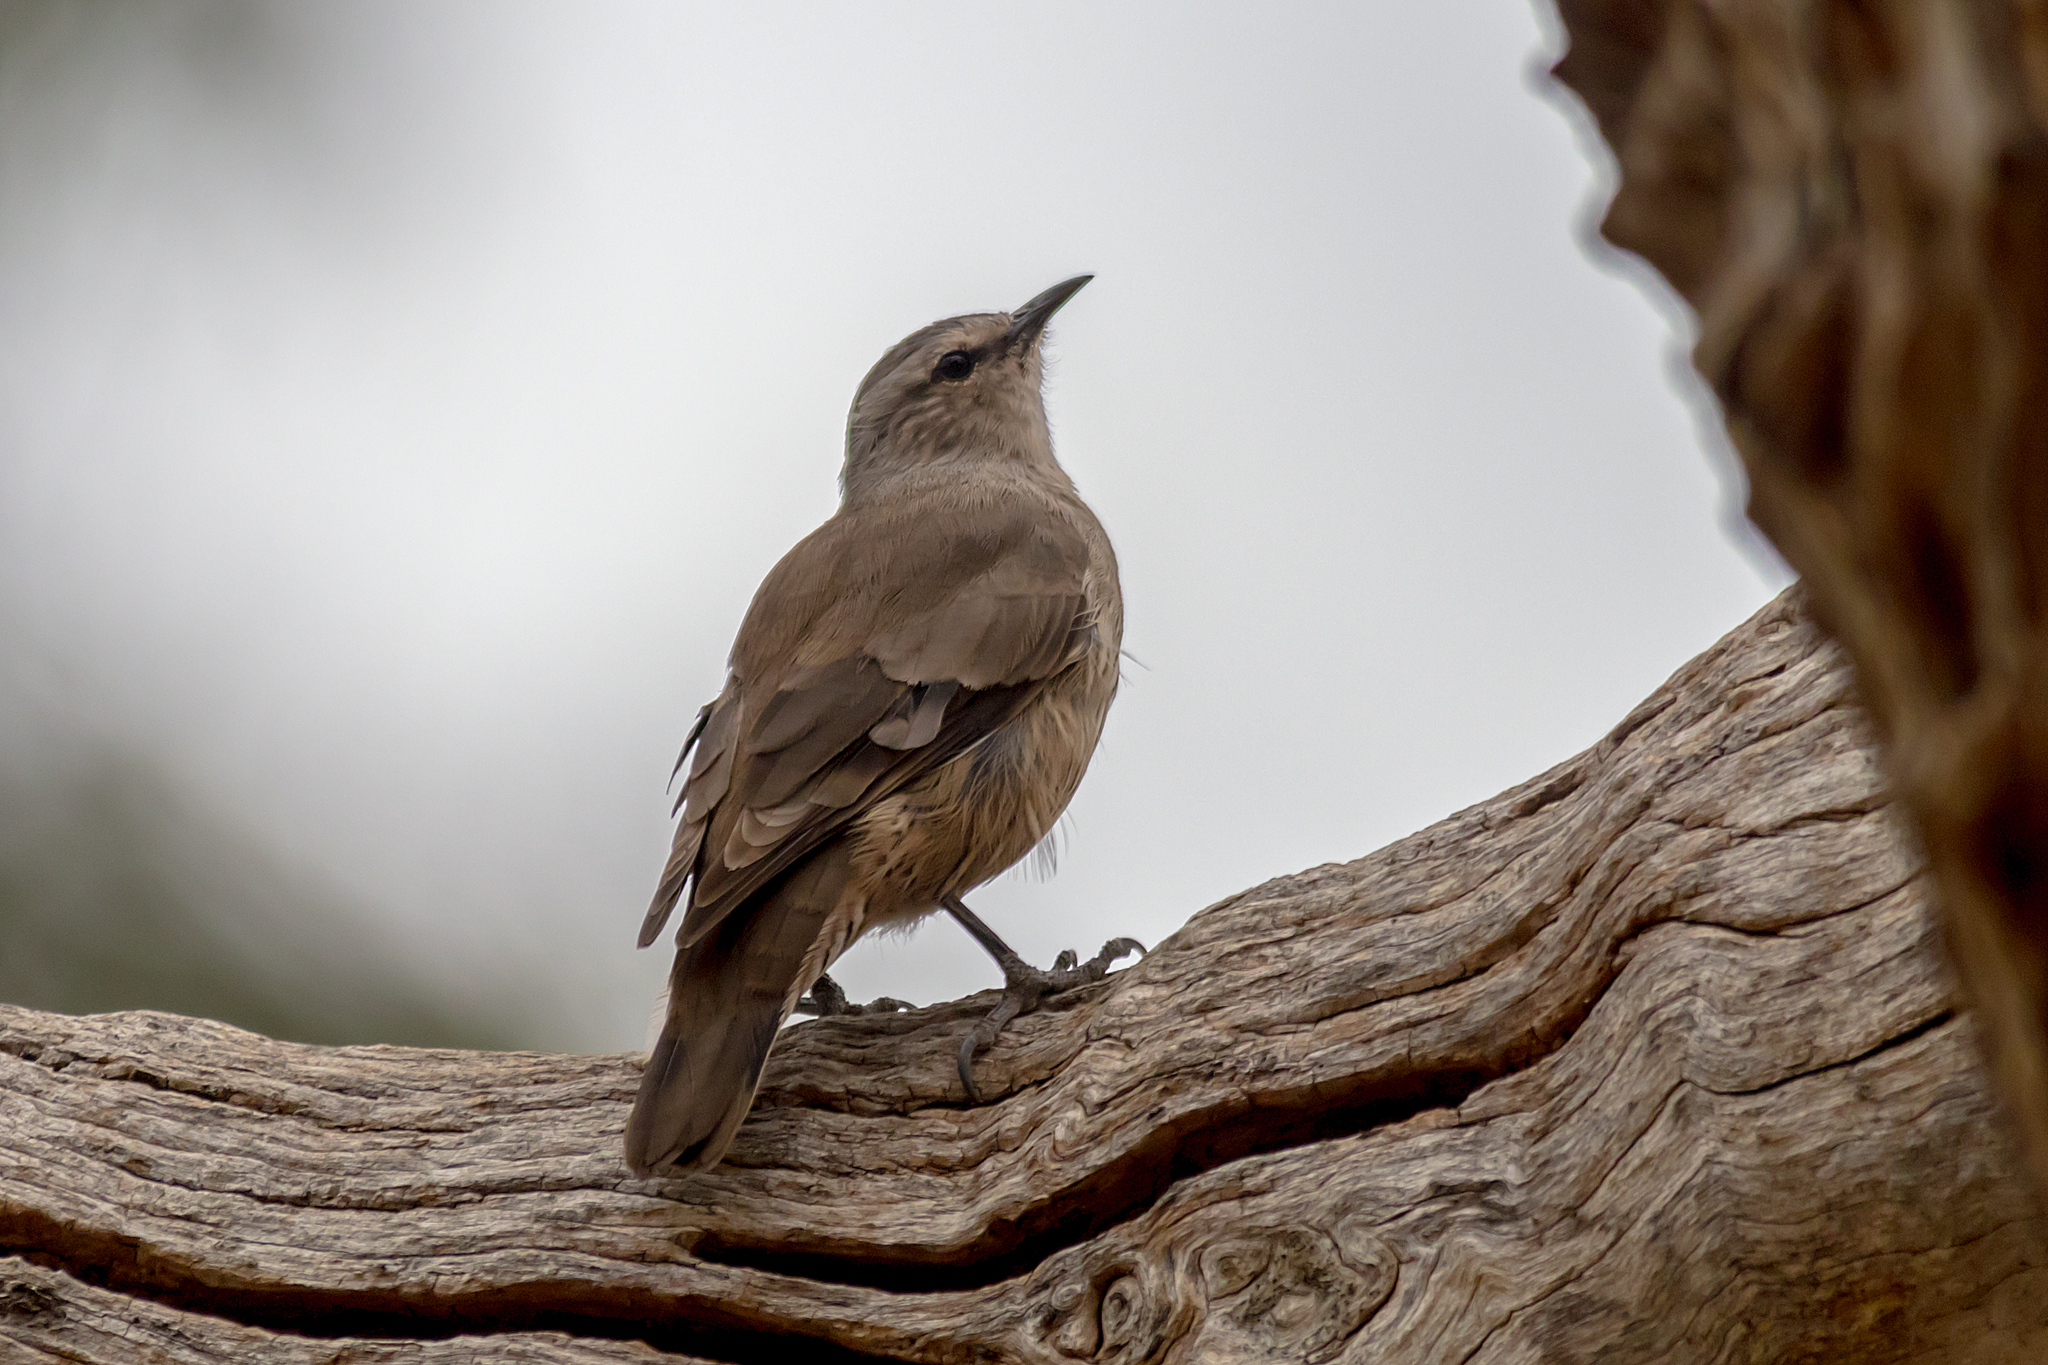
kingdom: Animalia
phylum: Chordata
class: Aves
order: Passeriformes
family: Climacteridae
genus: Climacteris
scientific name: Climacteris picumnus
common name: Brown treecreeper
